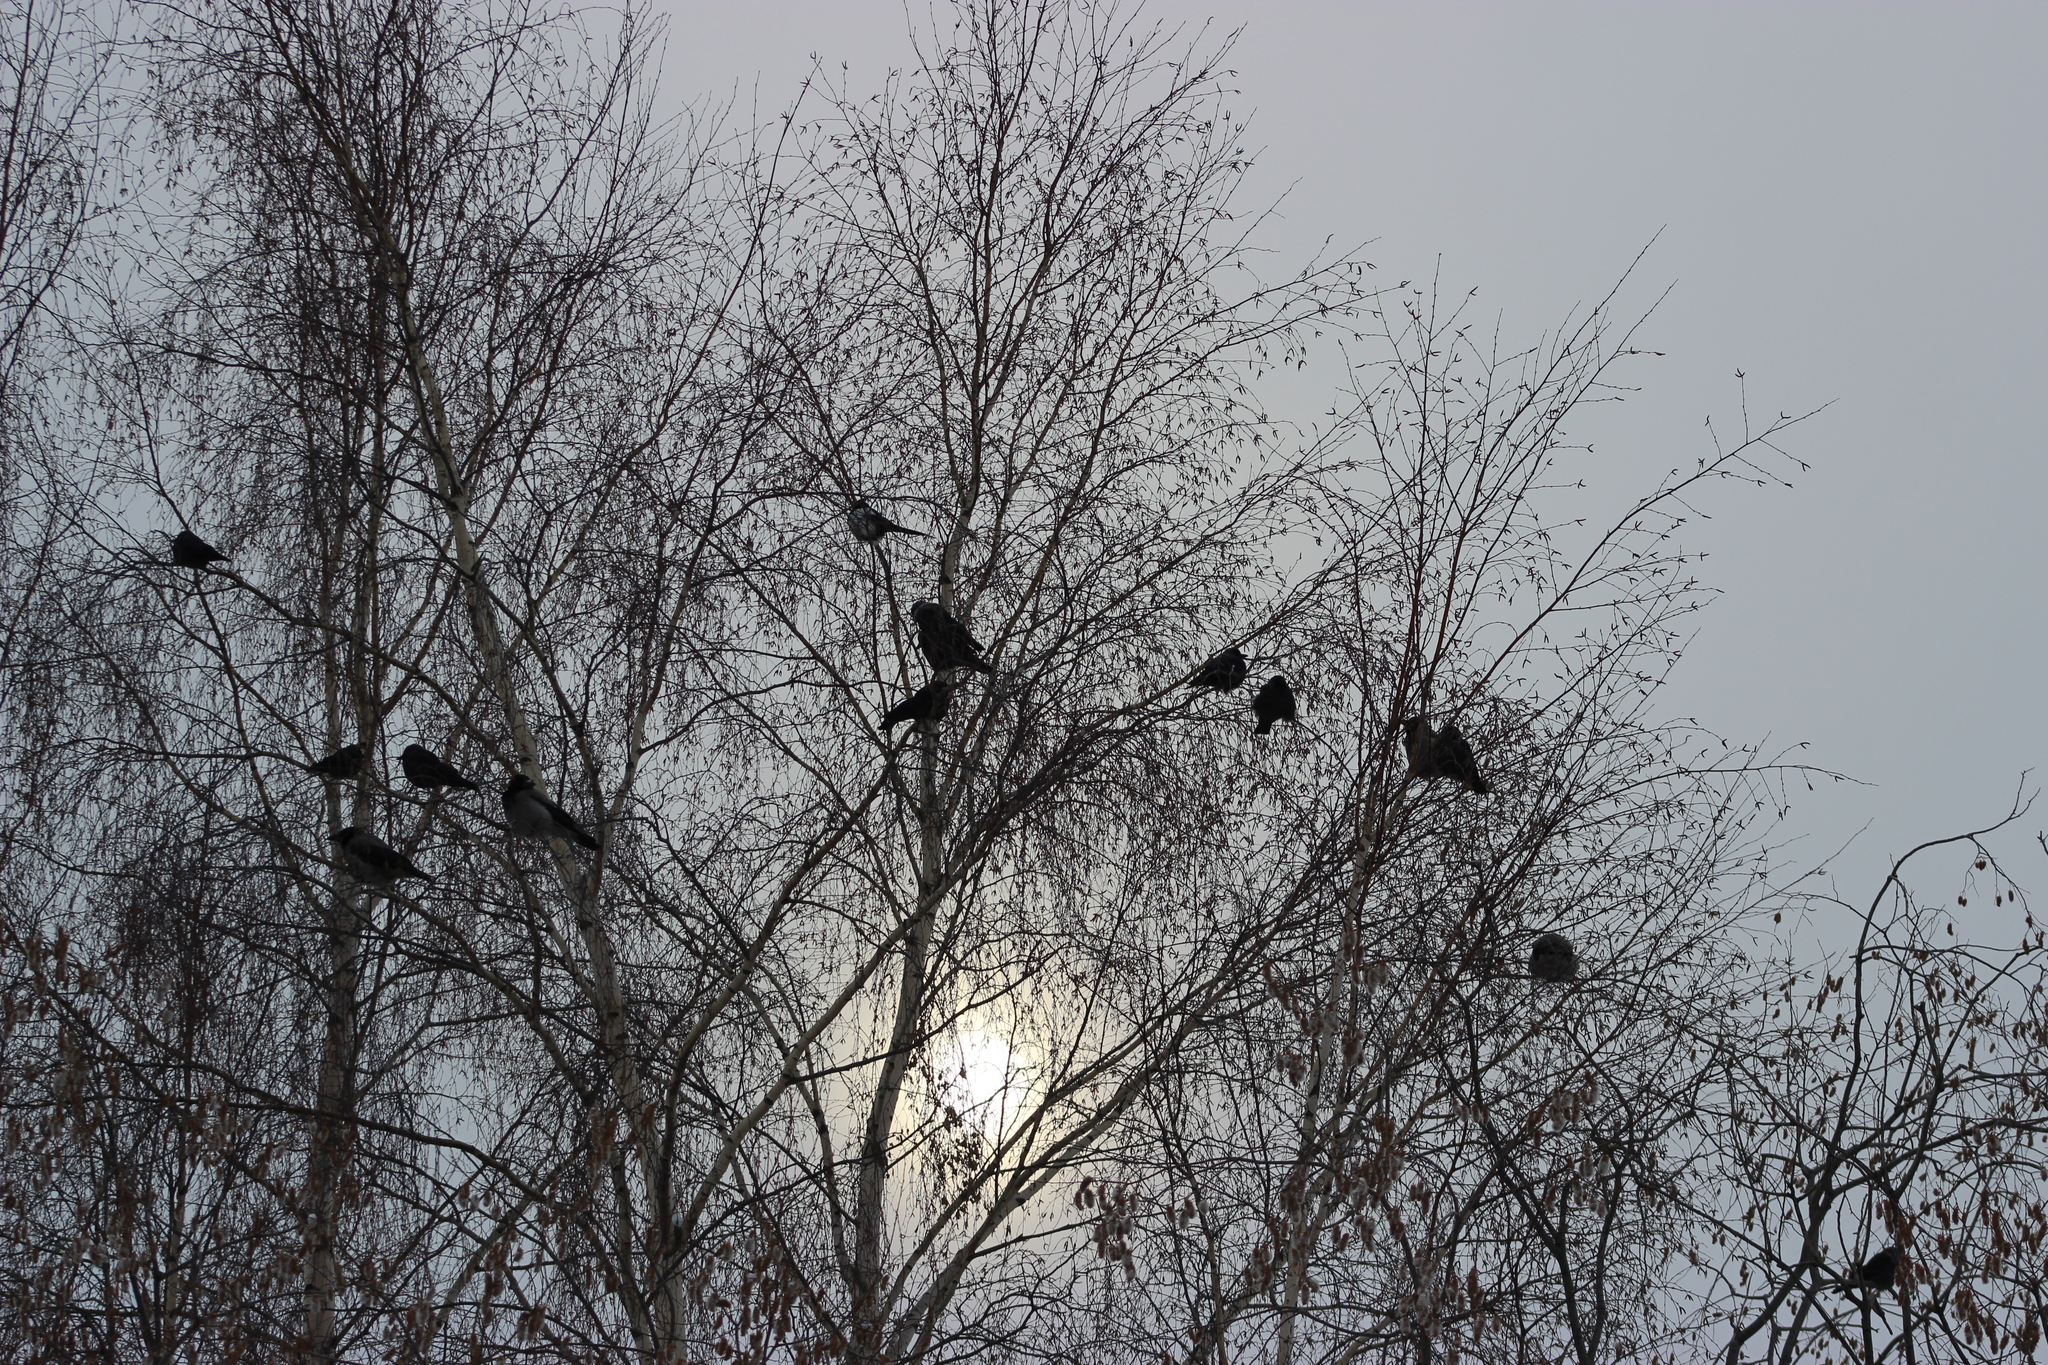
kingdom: Animalia
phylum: Chordata
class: Aves
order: Passeriformes
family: Corvidae
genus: Corvus
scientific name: Corvus cornix
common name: Hooded crow
